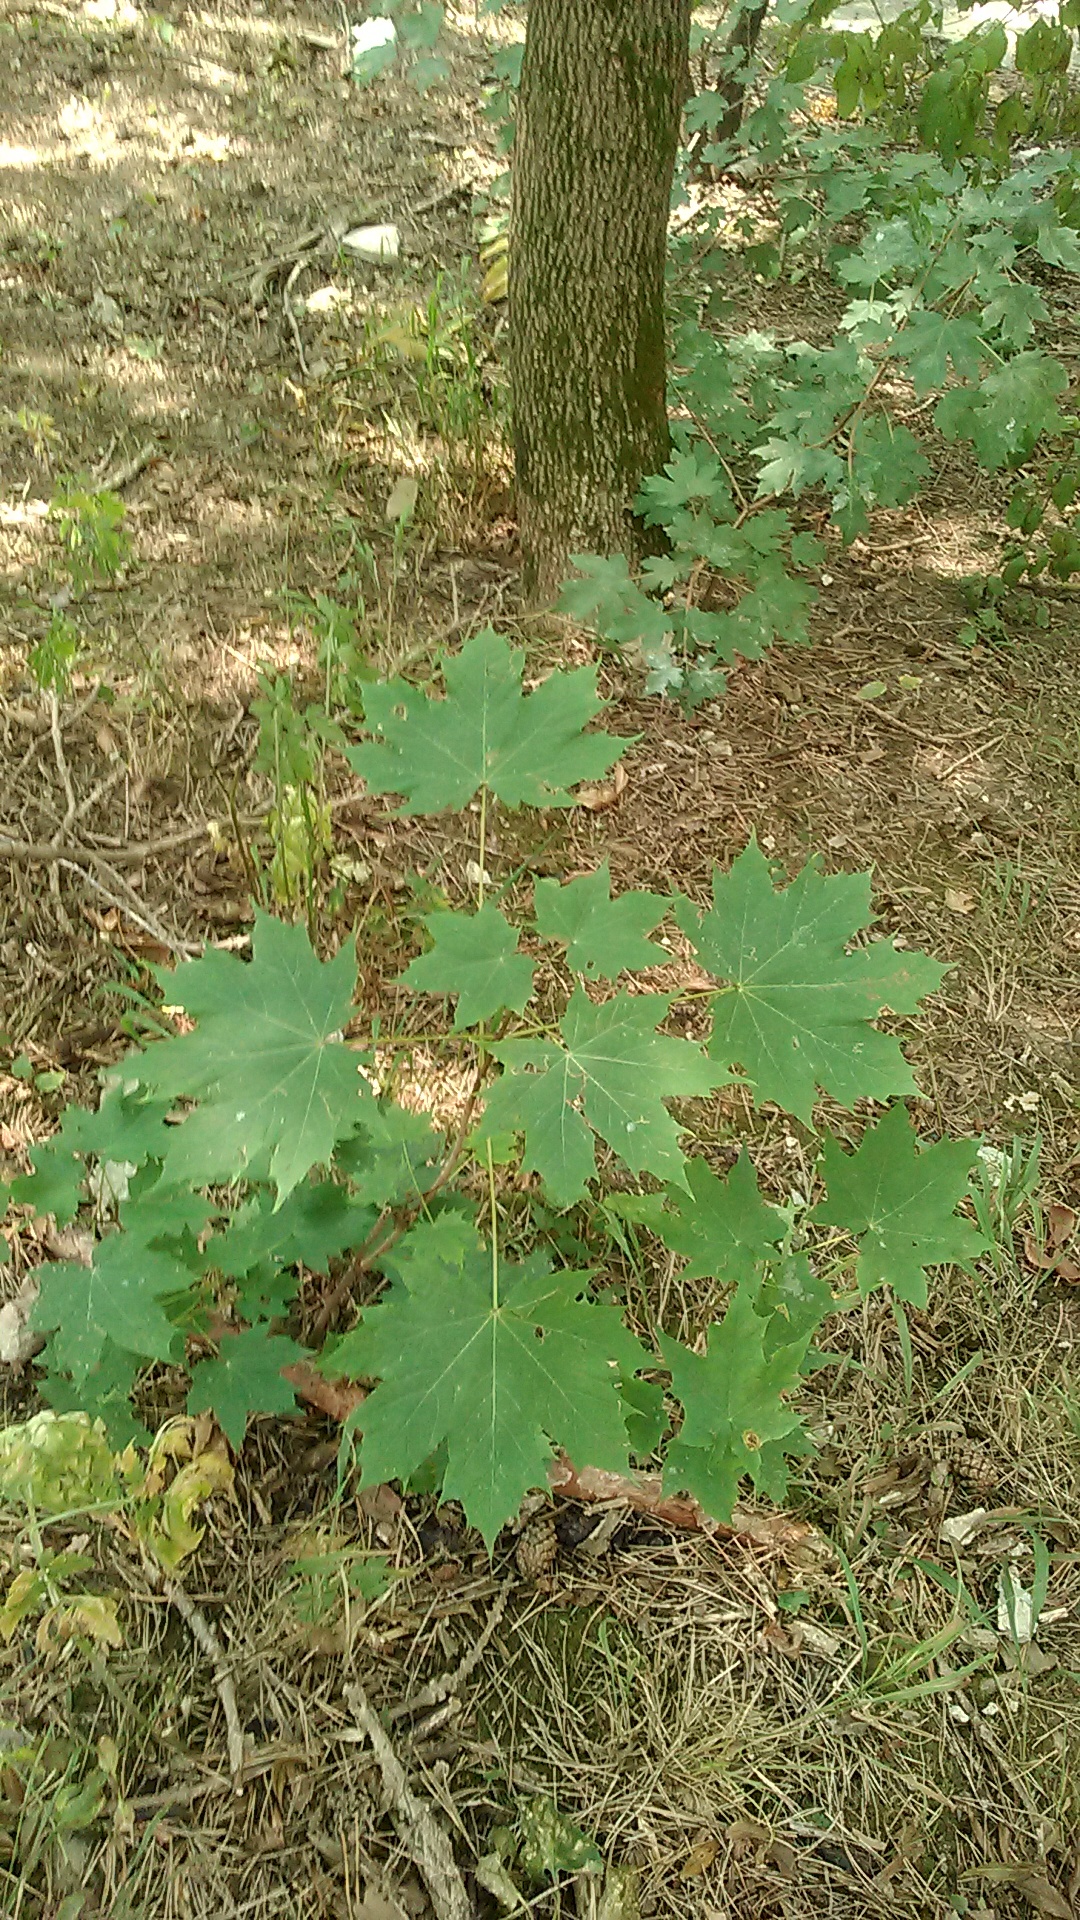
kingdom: Plantae
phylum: Tracheophyta
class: Magnoliopsida
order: Sapindales
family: Sapindaceae
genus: Acer
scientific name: Acer platanoides
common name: Norway maple
